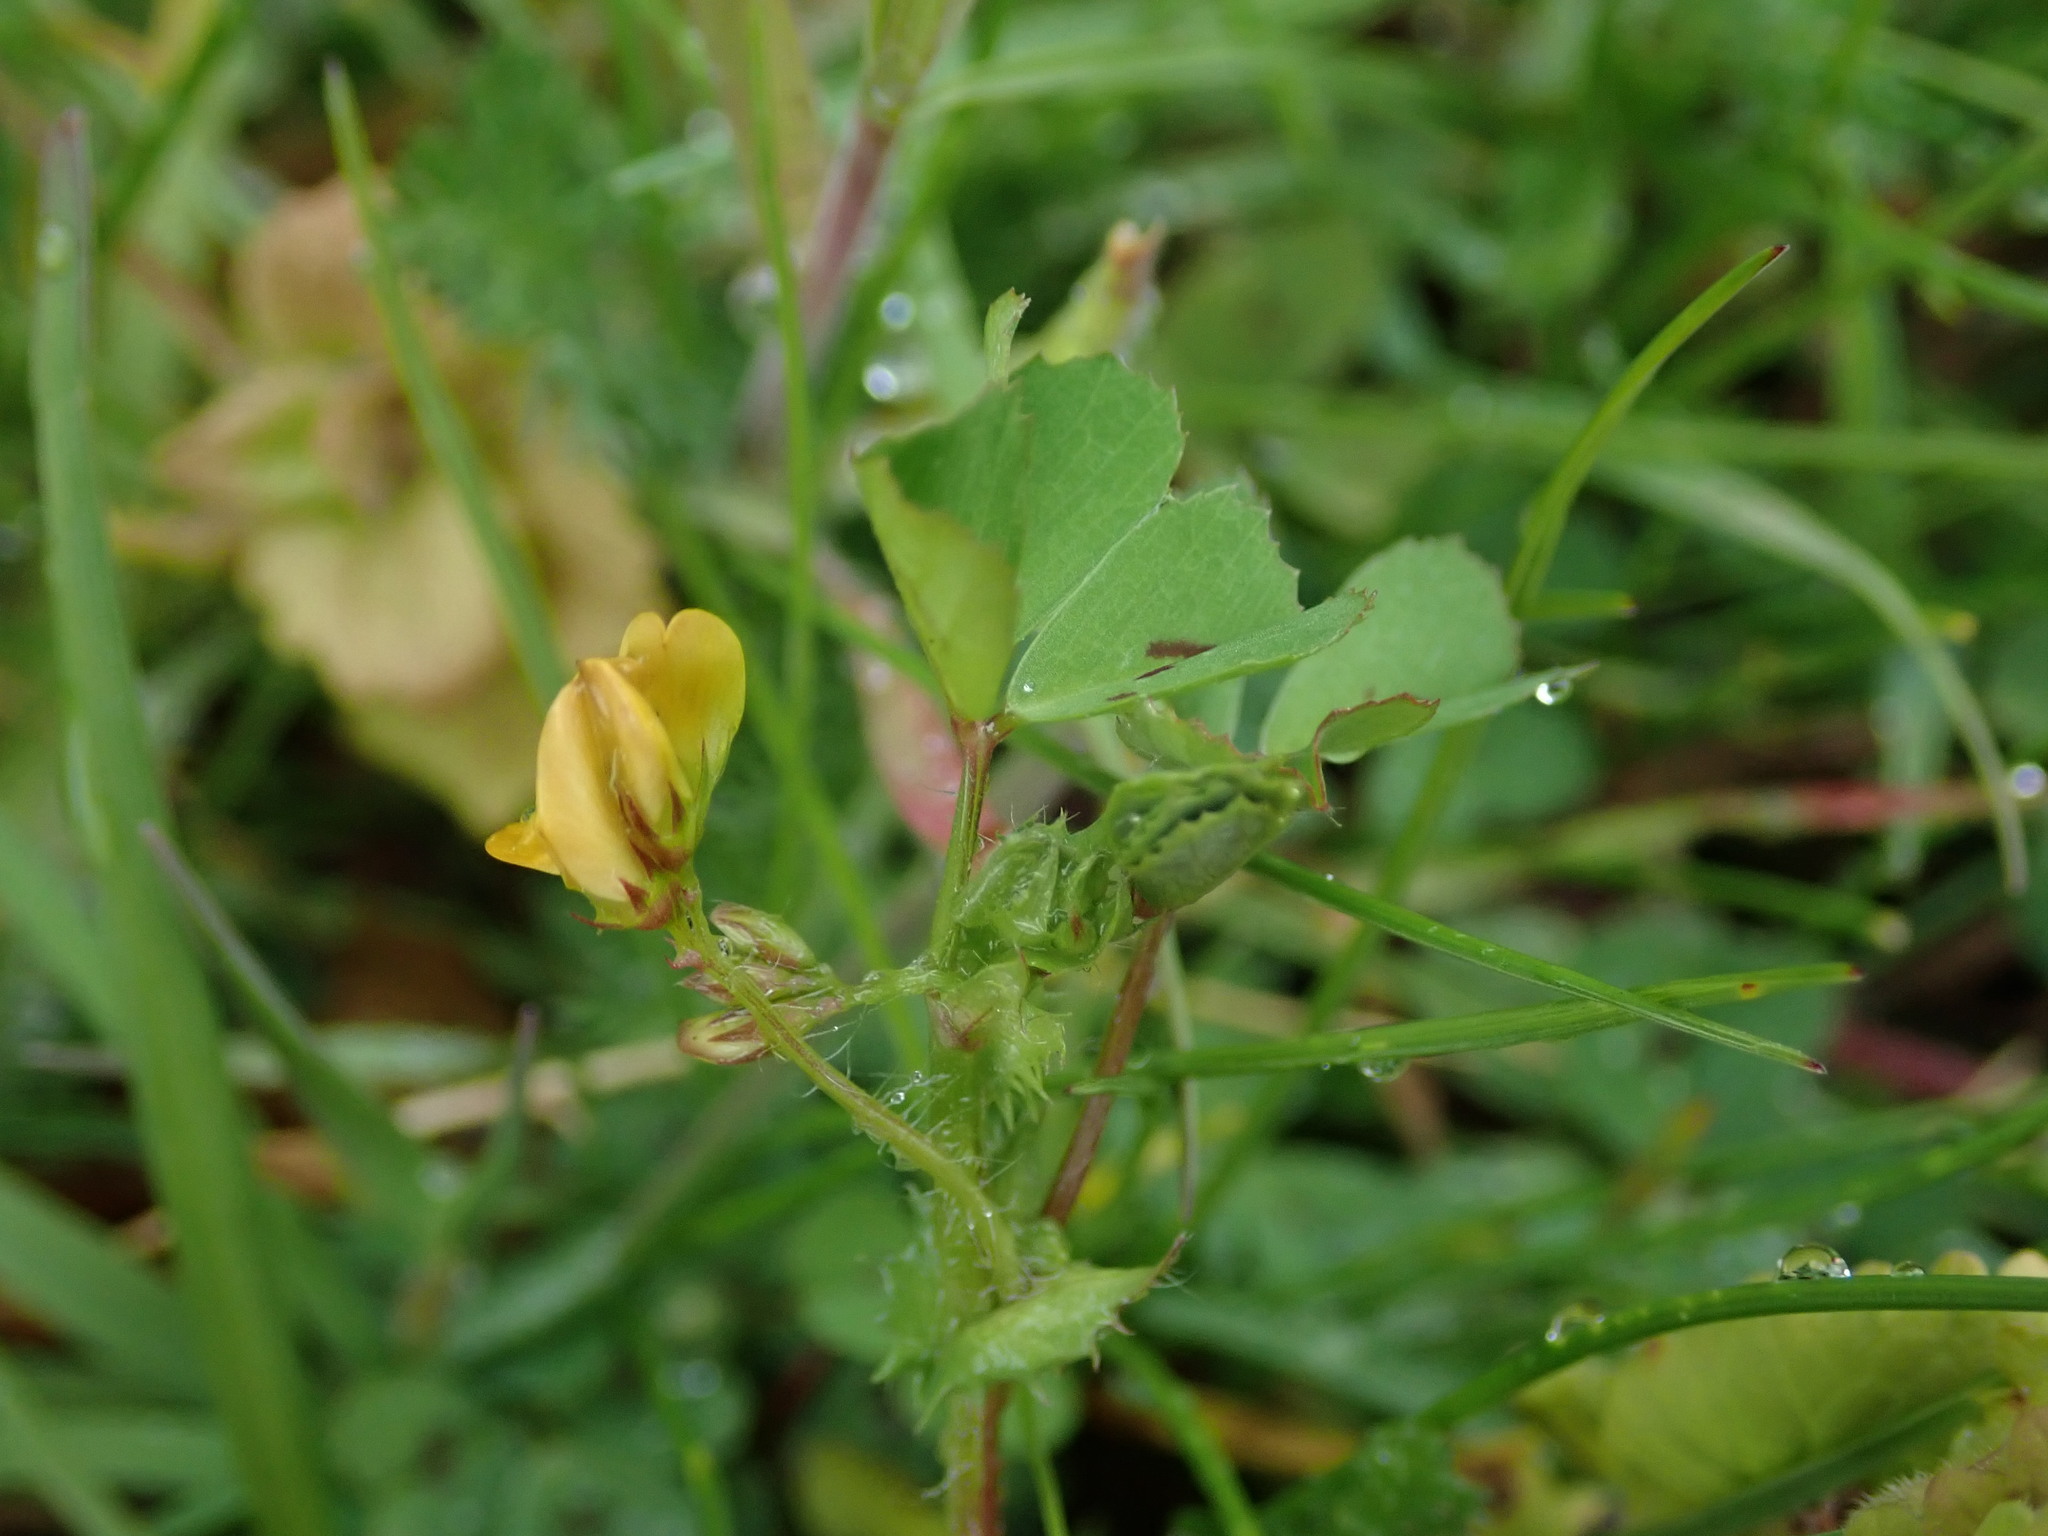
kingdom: Plantae
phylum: Tracheophyta
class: Magnoliopsida
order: Fabales
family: Fabaceae
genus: Medicago
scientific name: Medicago arabica
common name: Spotted medick
